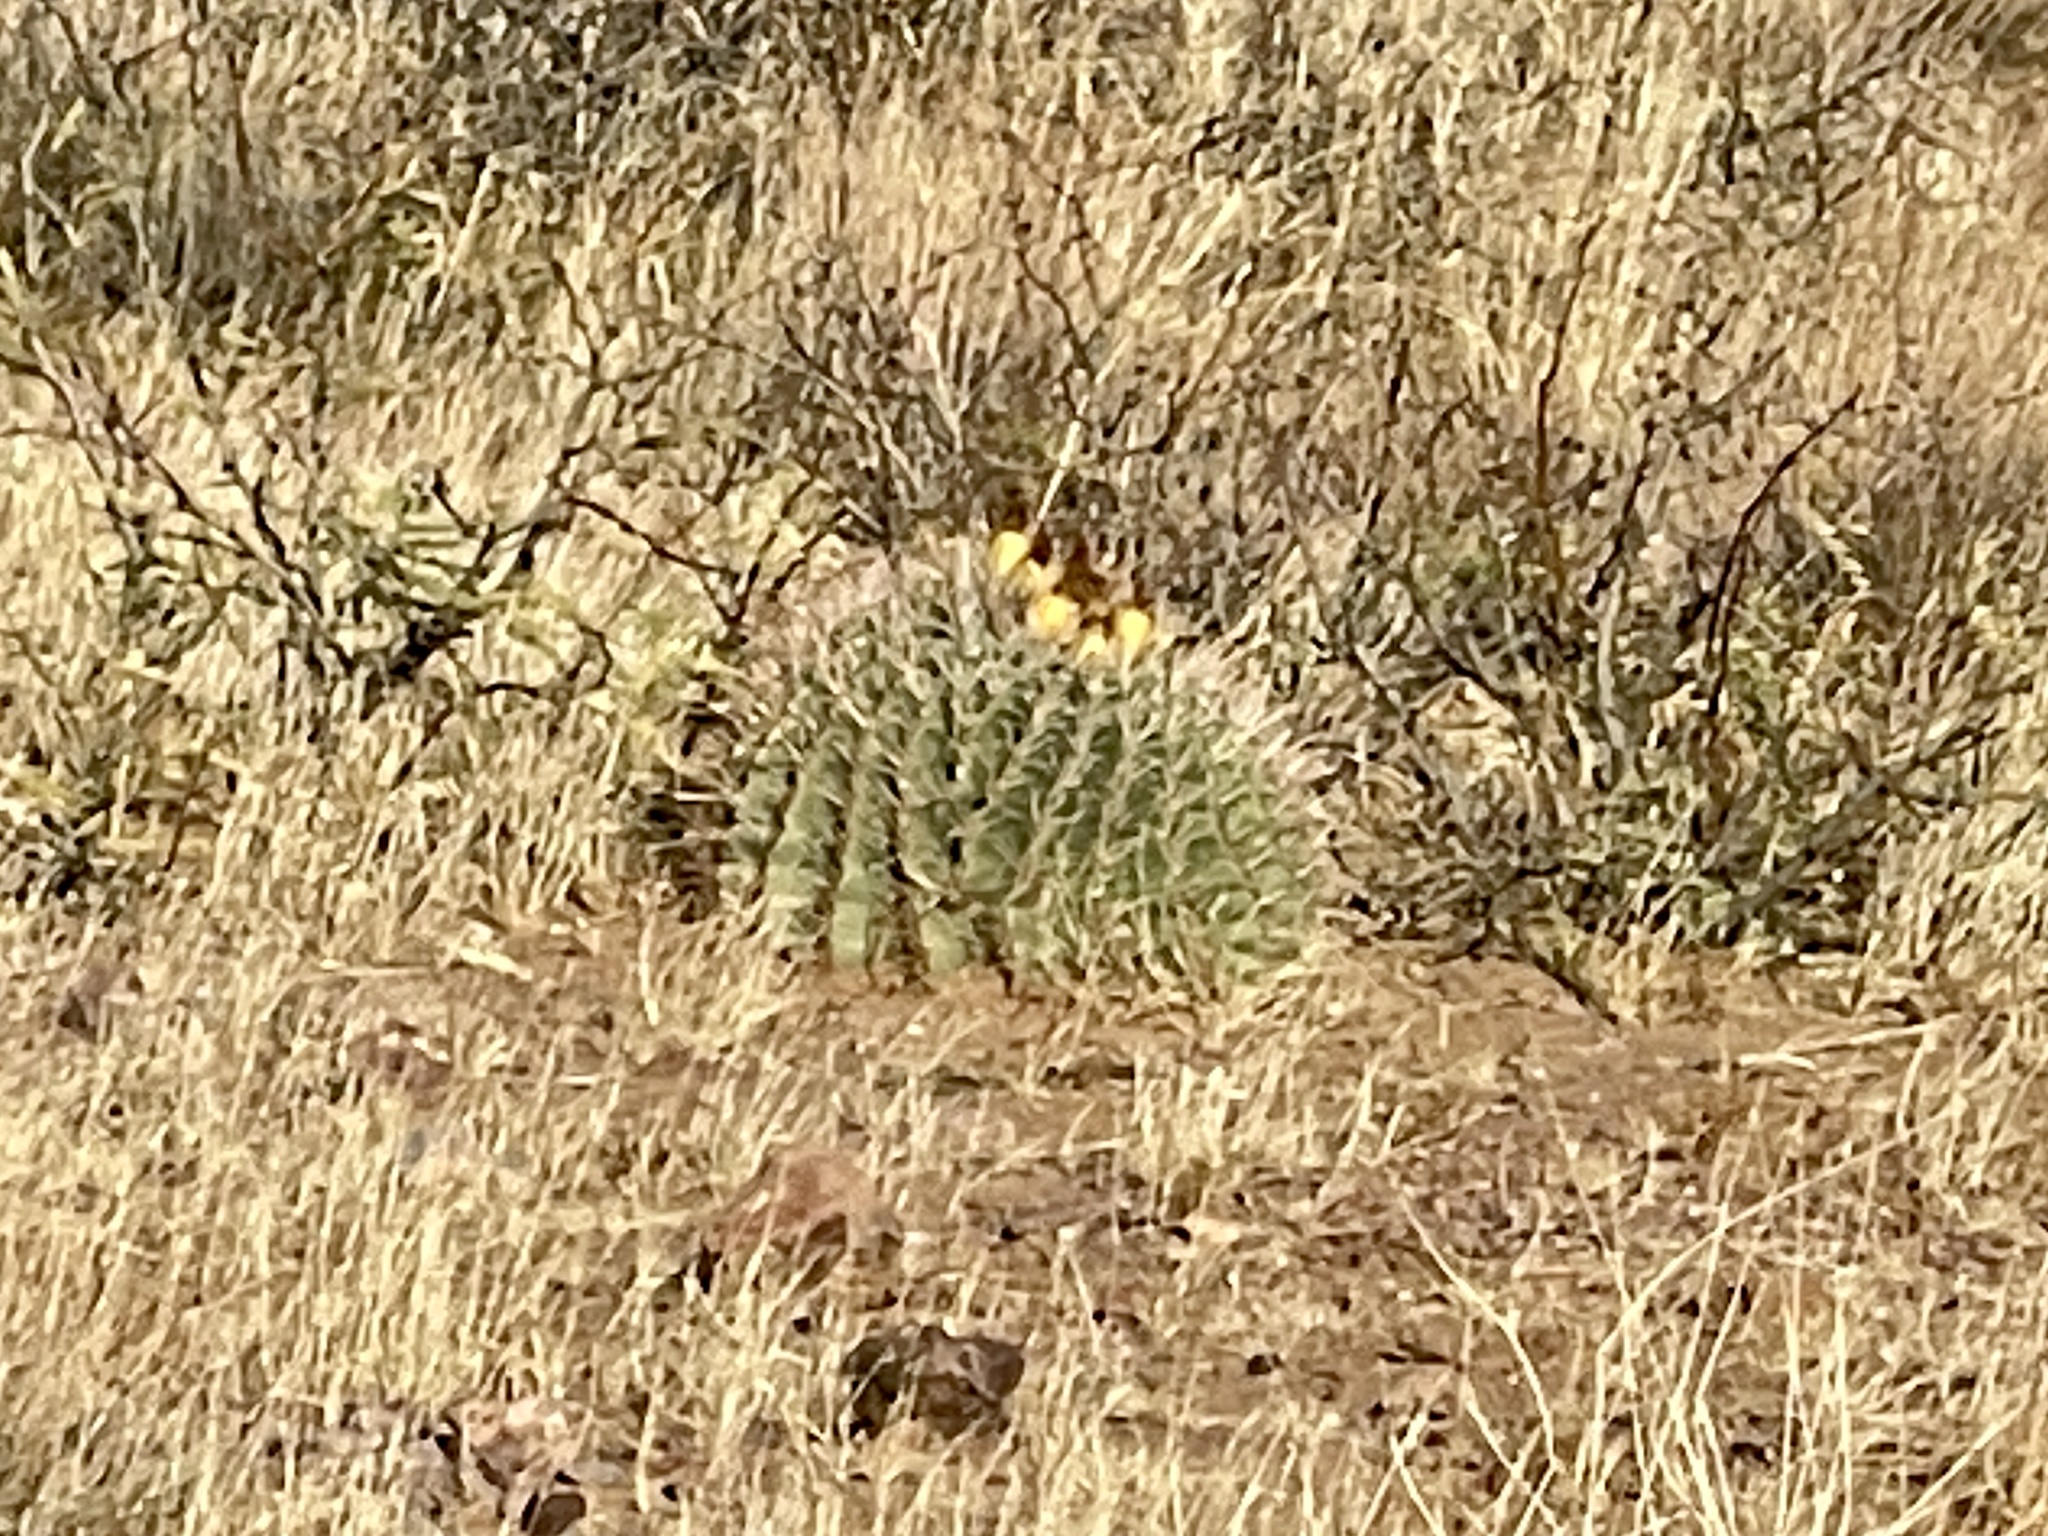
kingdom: Plantae
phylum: Tracheophyta
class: Magnoliopsida
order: Caryophyllales
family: Cactaceae
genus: Ferocactus
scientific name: Ferocactus wislizeni
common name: Candy barrel cactus
